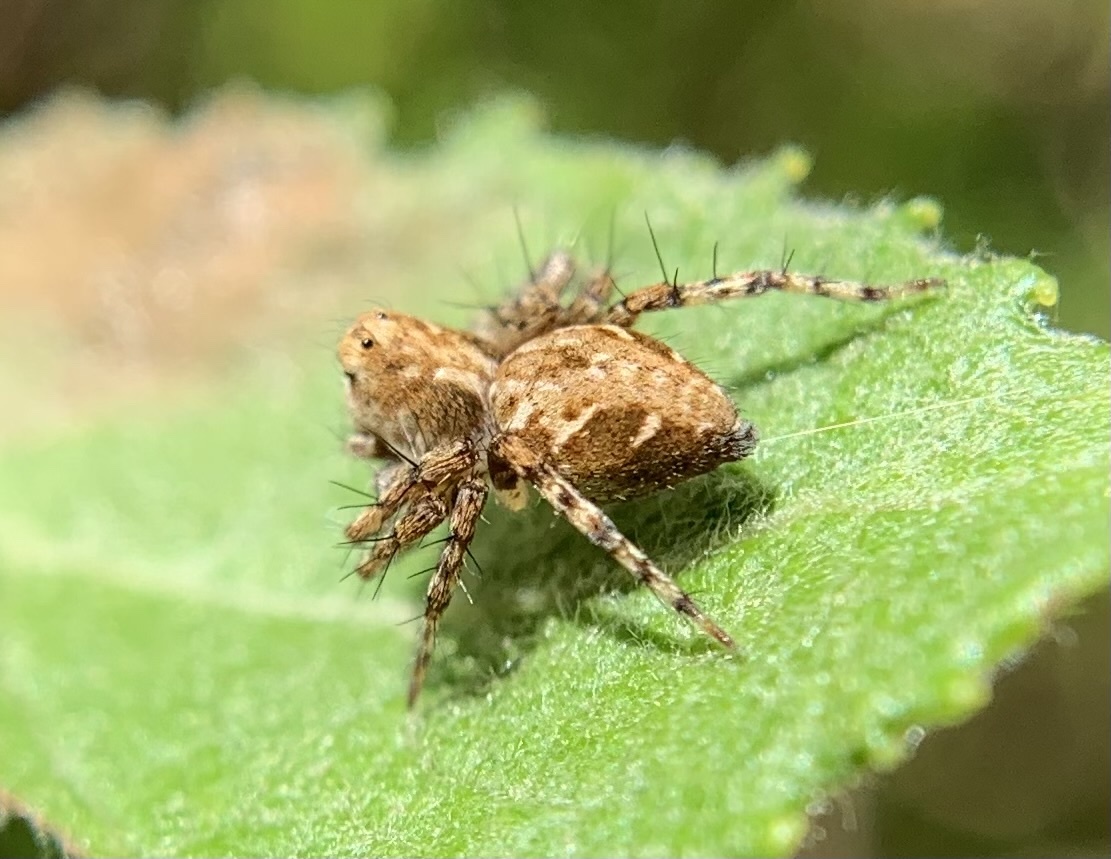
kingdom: Animalia
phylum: Arthropoda
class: Arachnida
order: Araneae
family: Oxyopidae
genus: Oxyopes
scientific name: Oxyopes ramosus
